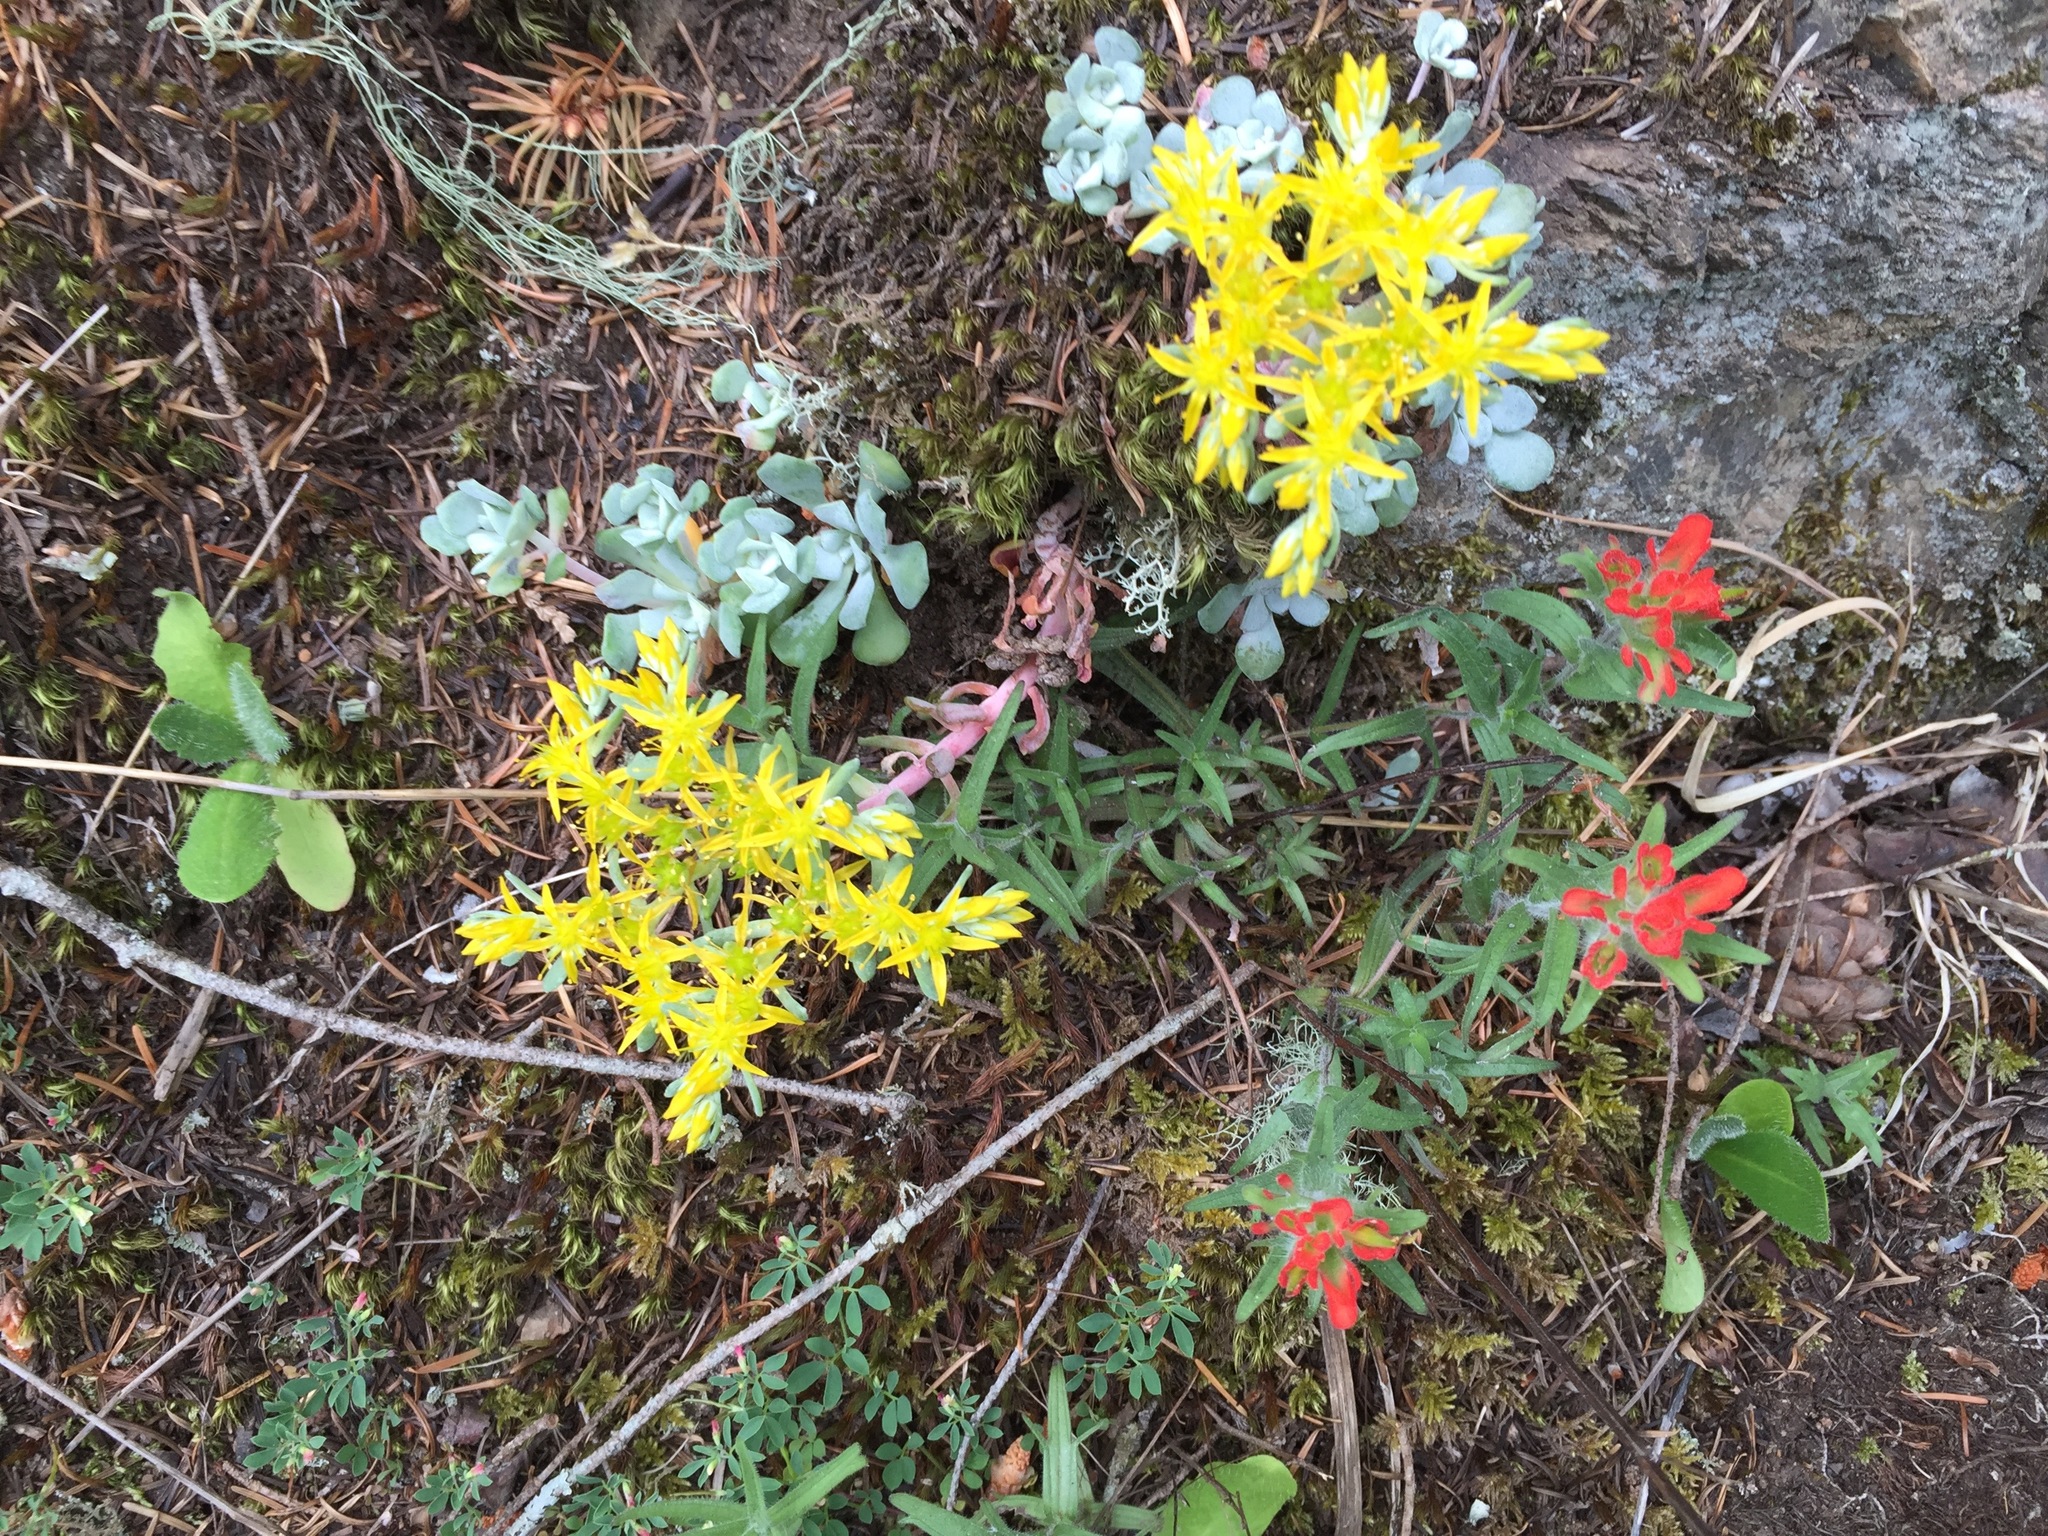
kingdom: Plantae
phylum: Tracheophyta
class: Magnoliopsida
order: Lamiales
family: Orobanchaceae
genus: Castilleja
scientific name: Castilleja hispida
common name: Bristly paintbrush
